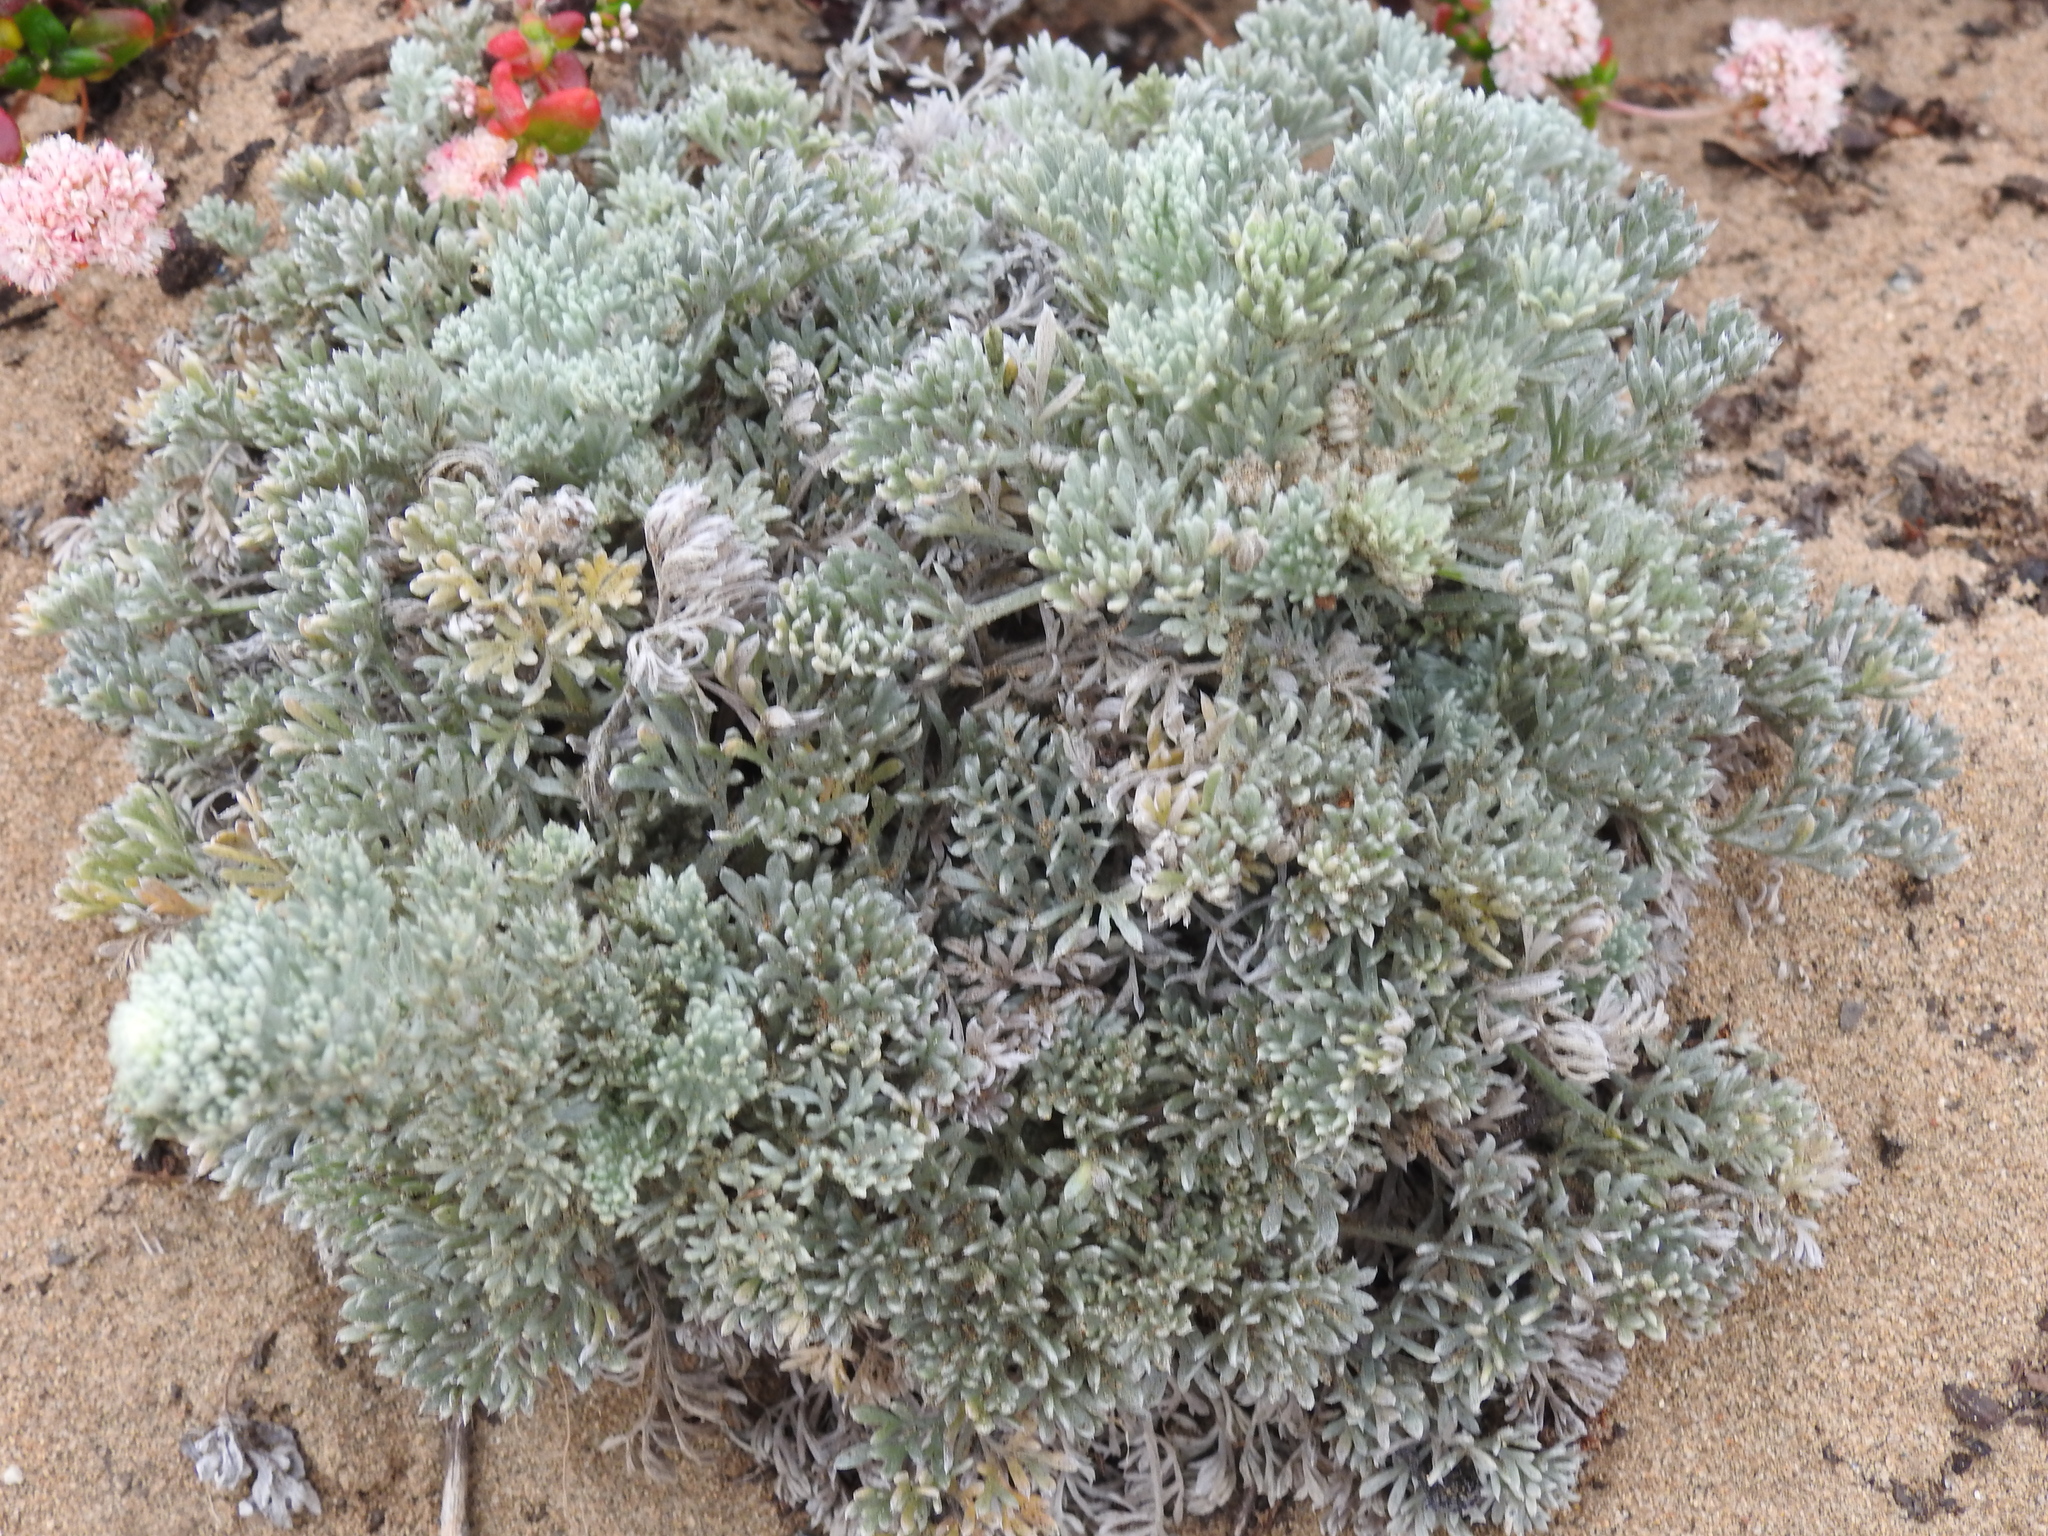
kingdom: Plantae
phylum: Tracheophyta
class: Magnoliopsida
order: Asterales
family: Asteraceae
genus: Artemisia
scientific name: Artemisia pycnocephala
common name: Coastal sagewort
